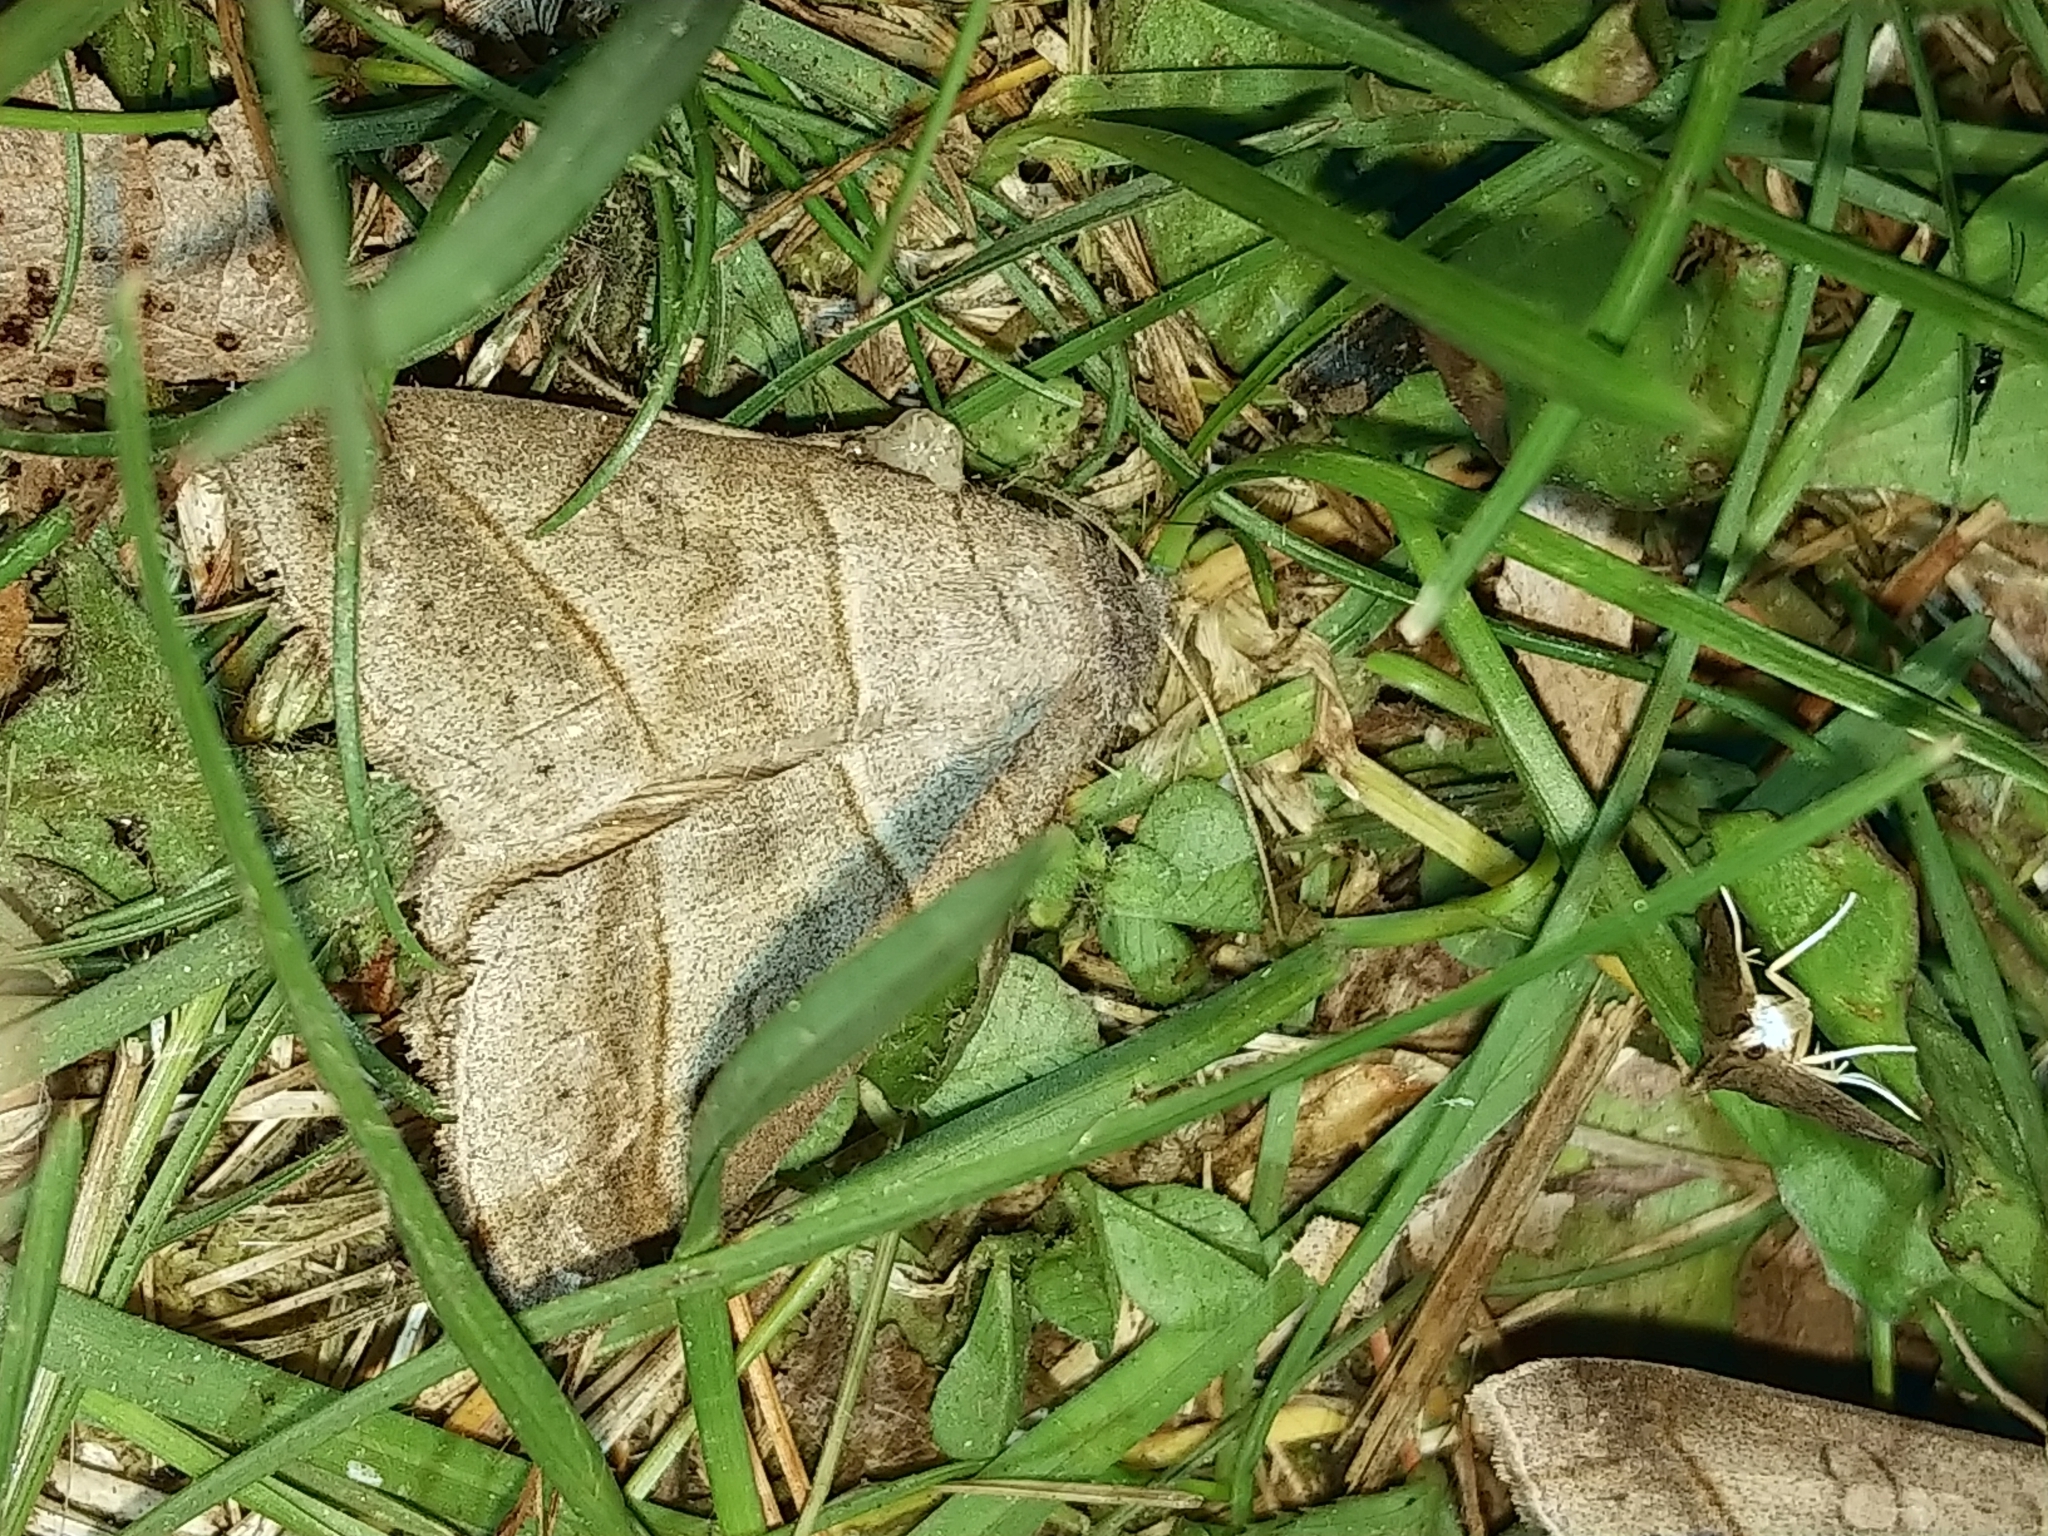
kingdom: Animalia
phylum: Arthropoda
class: Insecta
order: Lepidoptera
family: Erebidae
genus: Mocis
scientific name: Mocis texana
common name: Texas mocis moth
